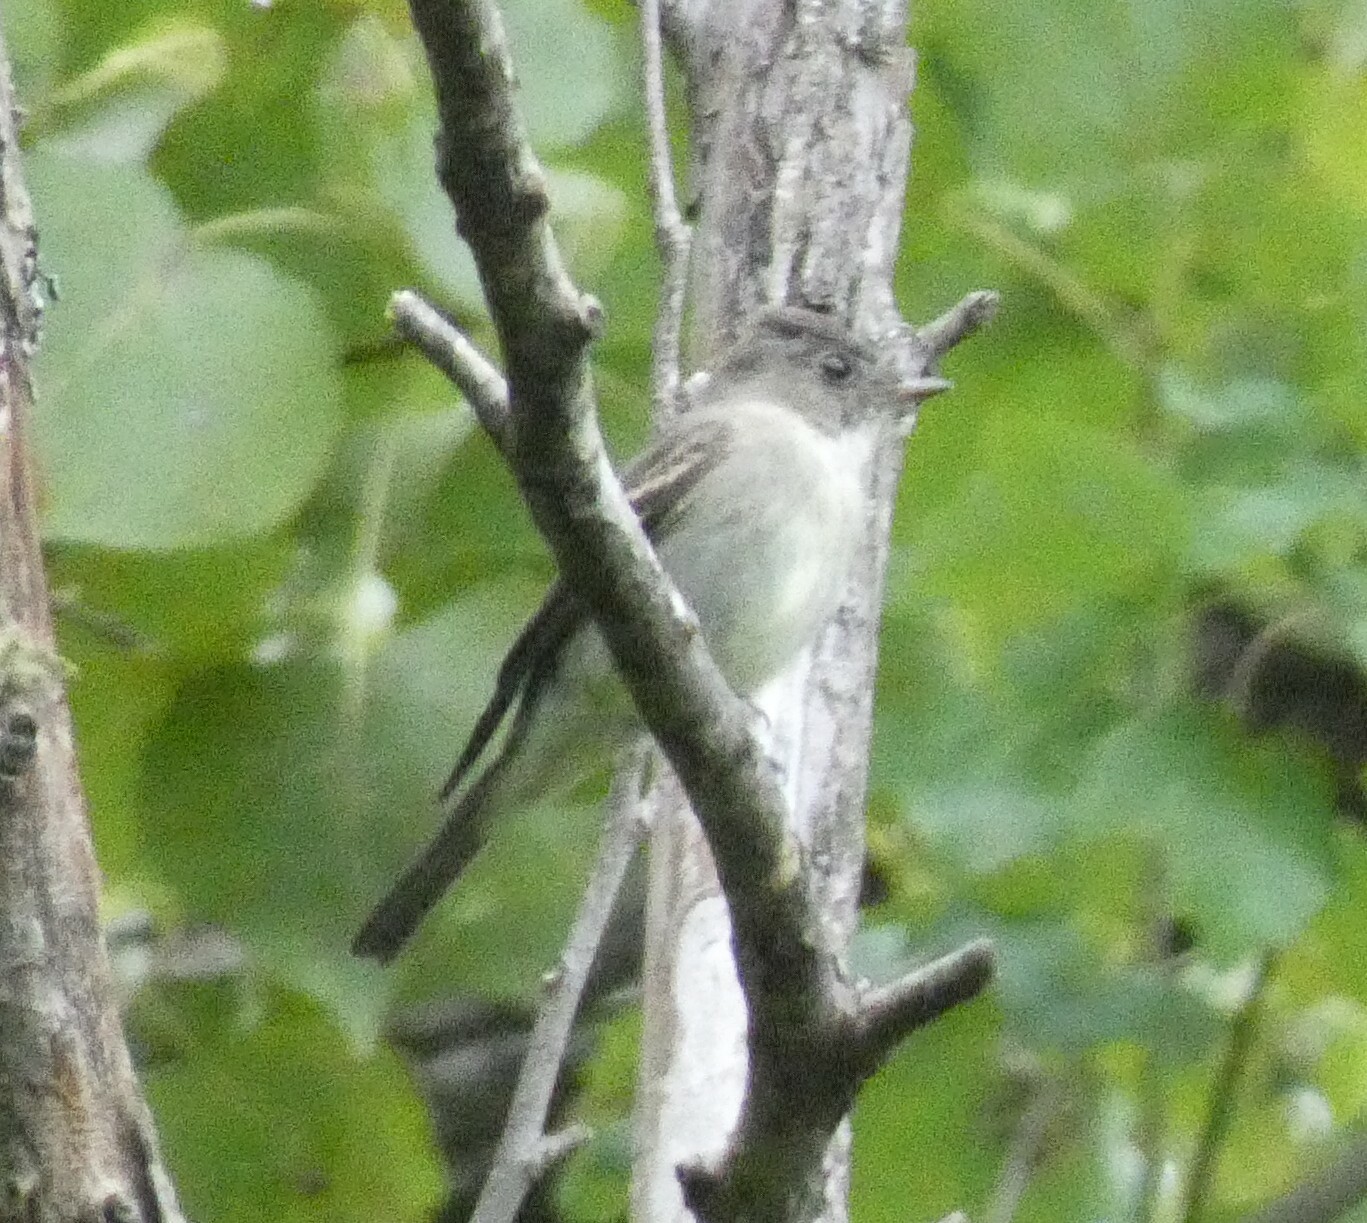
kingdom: Animalia
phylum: Chordata
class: Aves
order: Passeriformes
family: Tyrannidae
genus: Contopus
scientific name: Contopus virens
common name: Eastern wood-pewee
